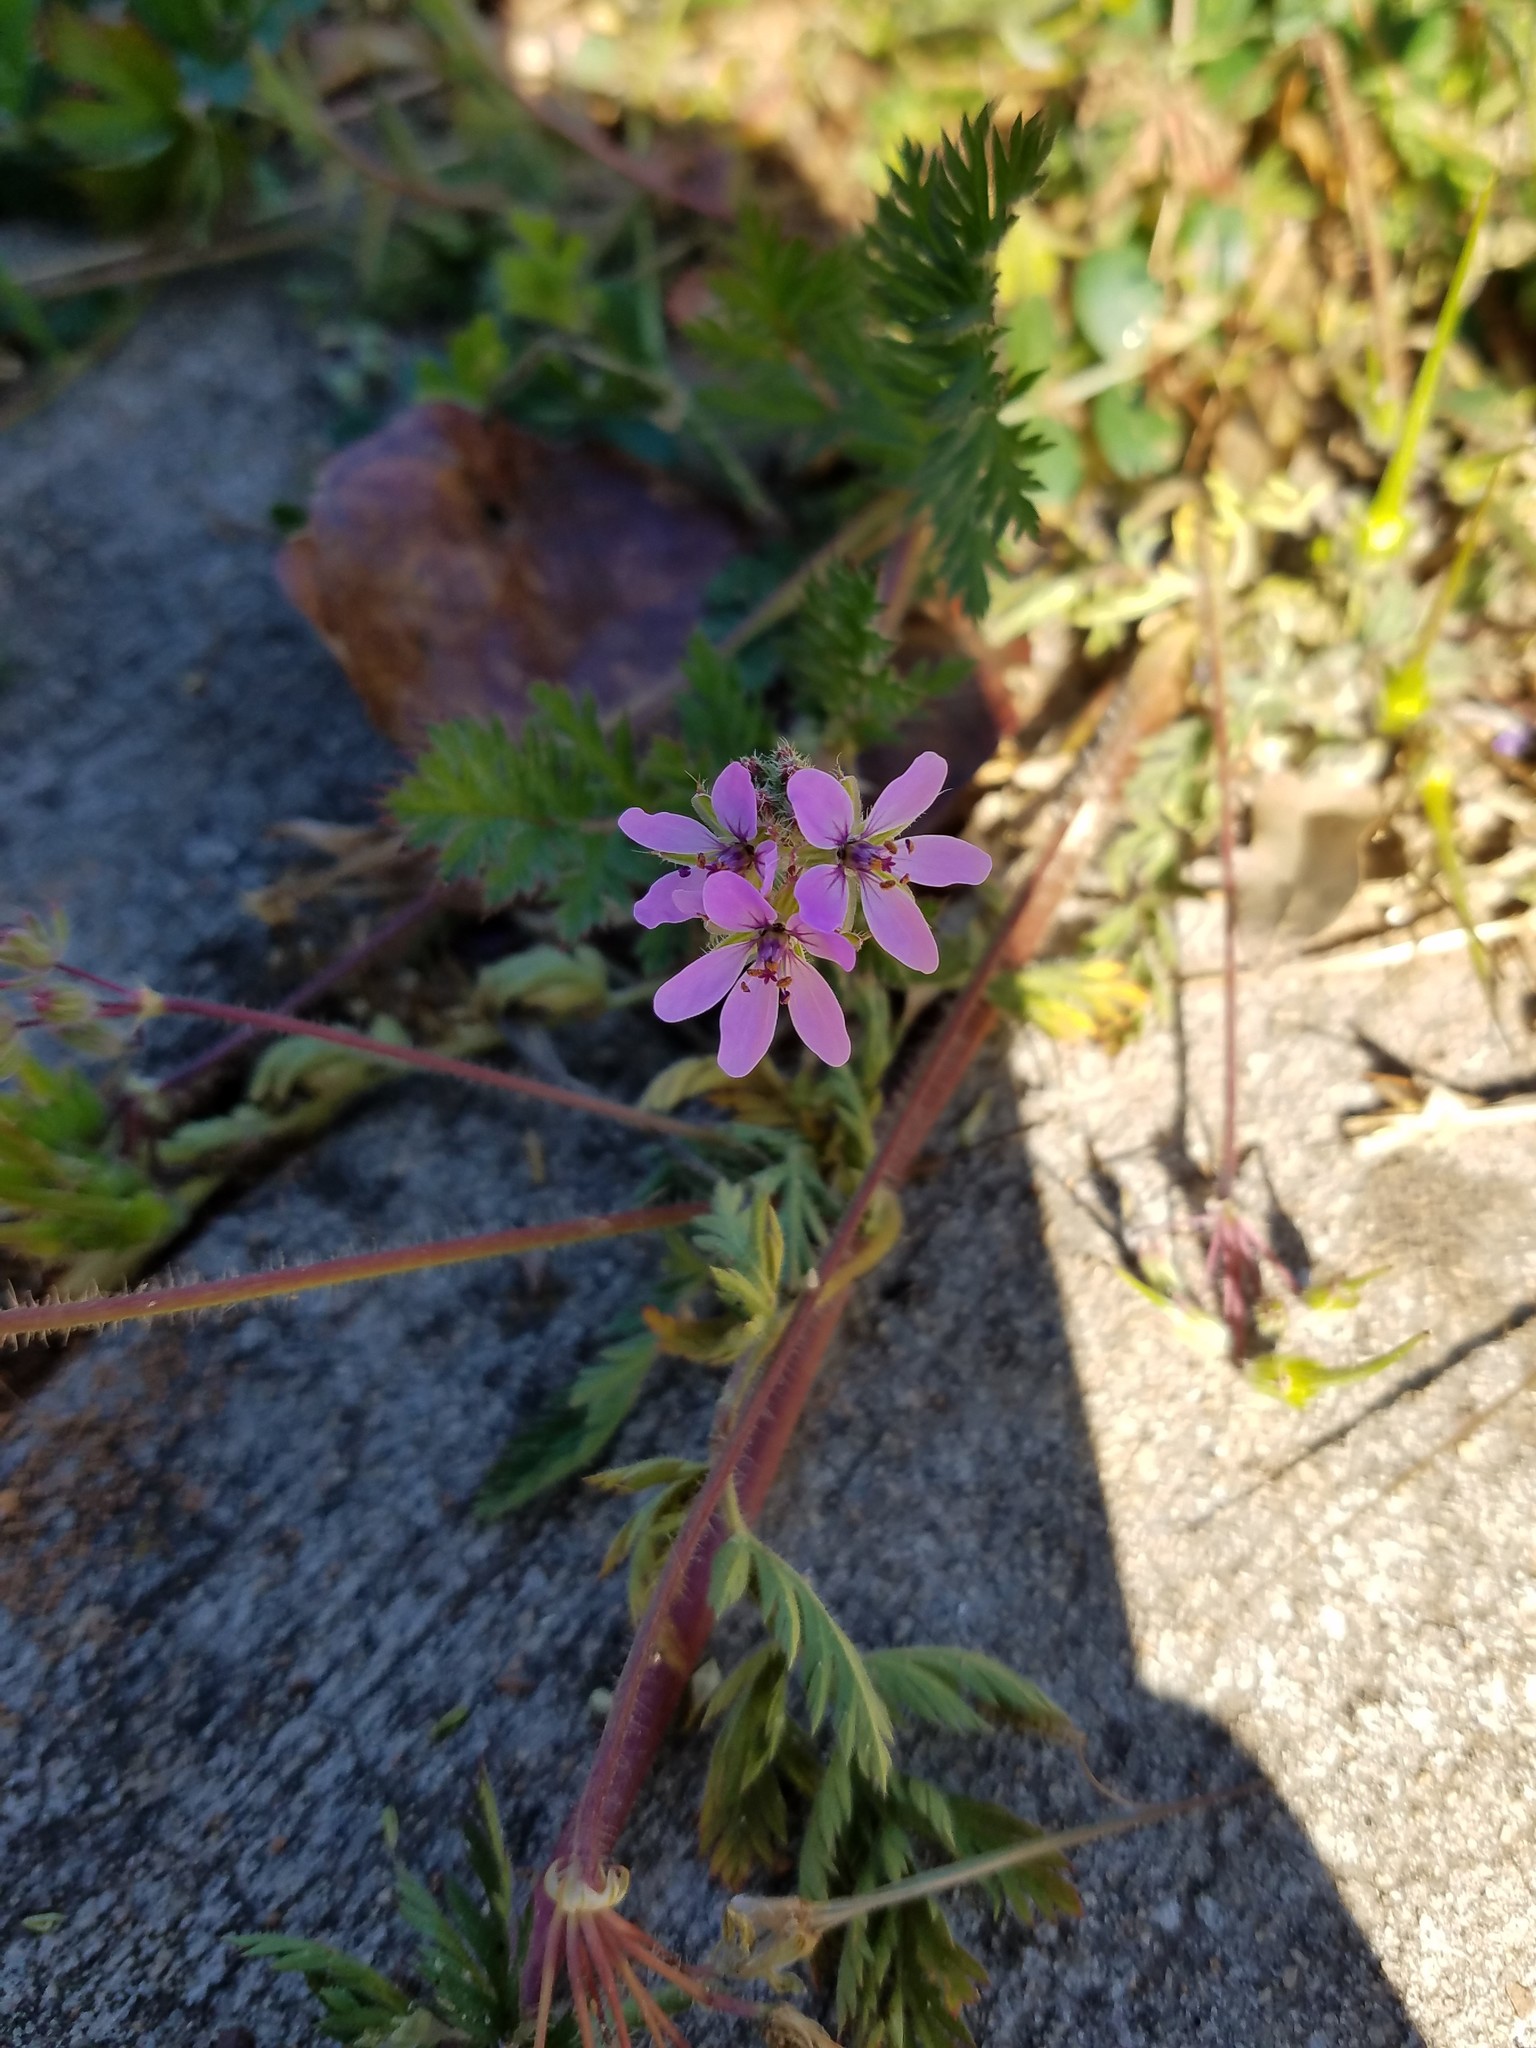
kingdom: Plantae
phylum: Tracheophyta
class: Magnoliopsida
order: Geraniales
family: Geraniaceae
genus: Erodium
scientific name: Erodium cicutarium
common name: Common stork's-bill
